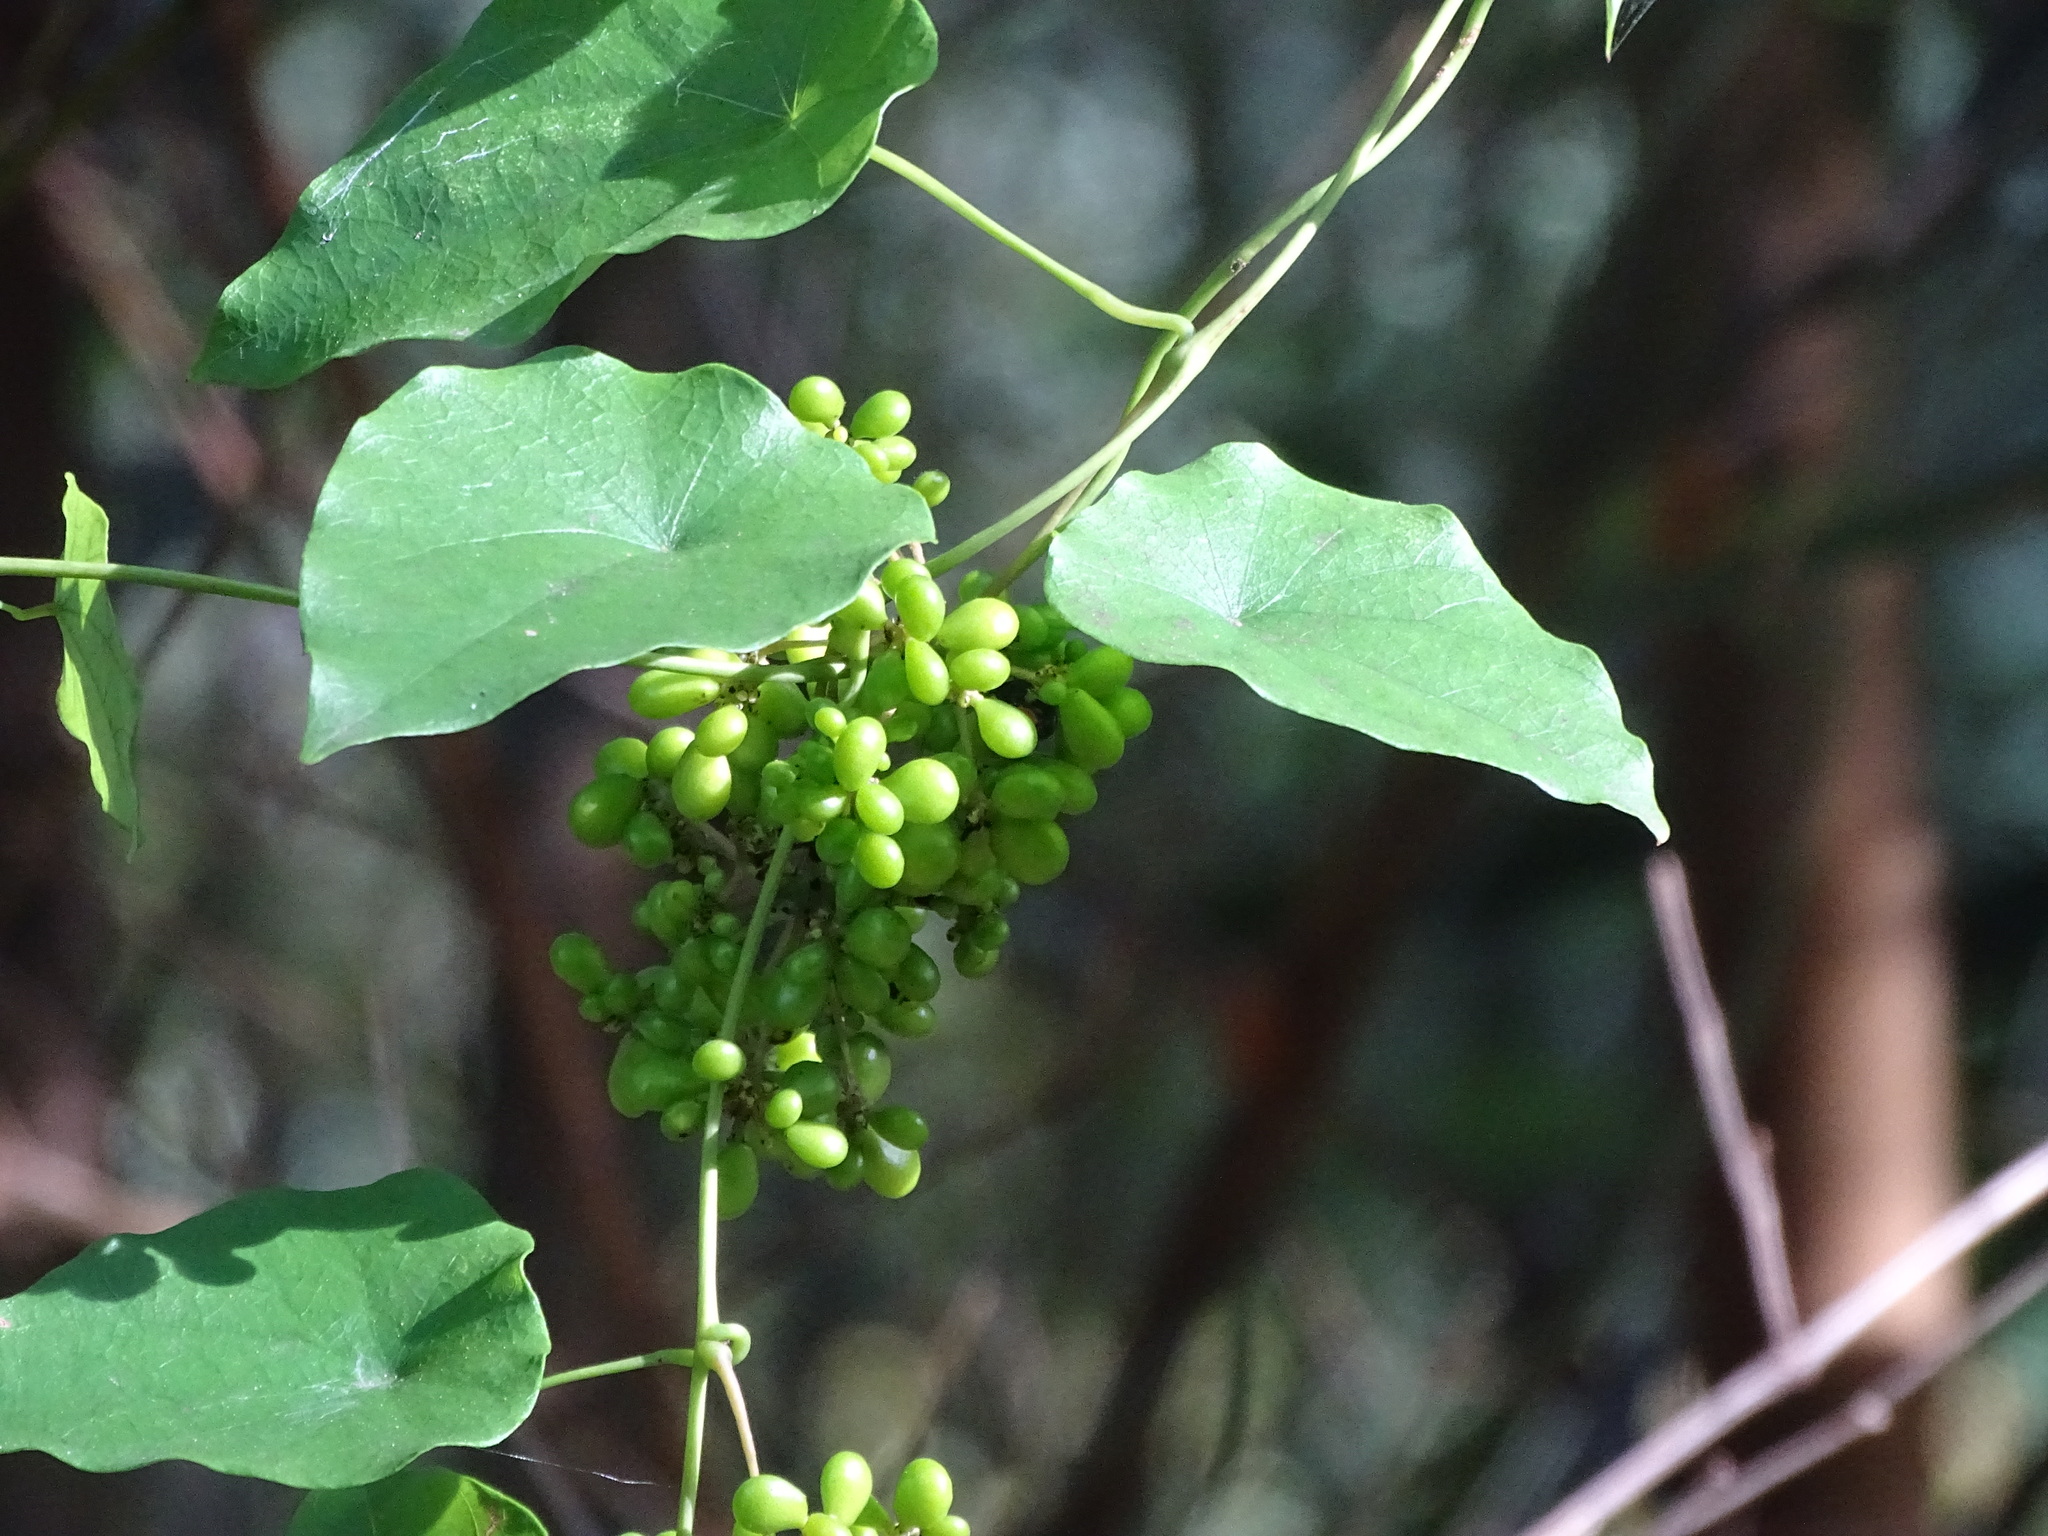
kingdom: Plantae
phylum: Tracheophyta
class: Magnoliopsida
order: Ranunculales
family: Menispermaceae
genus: Stephania
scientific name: Stephania japonica
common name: Snake vine
